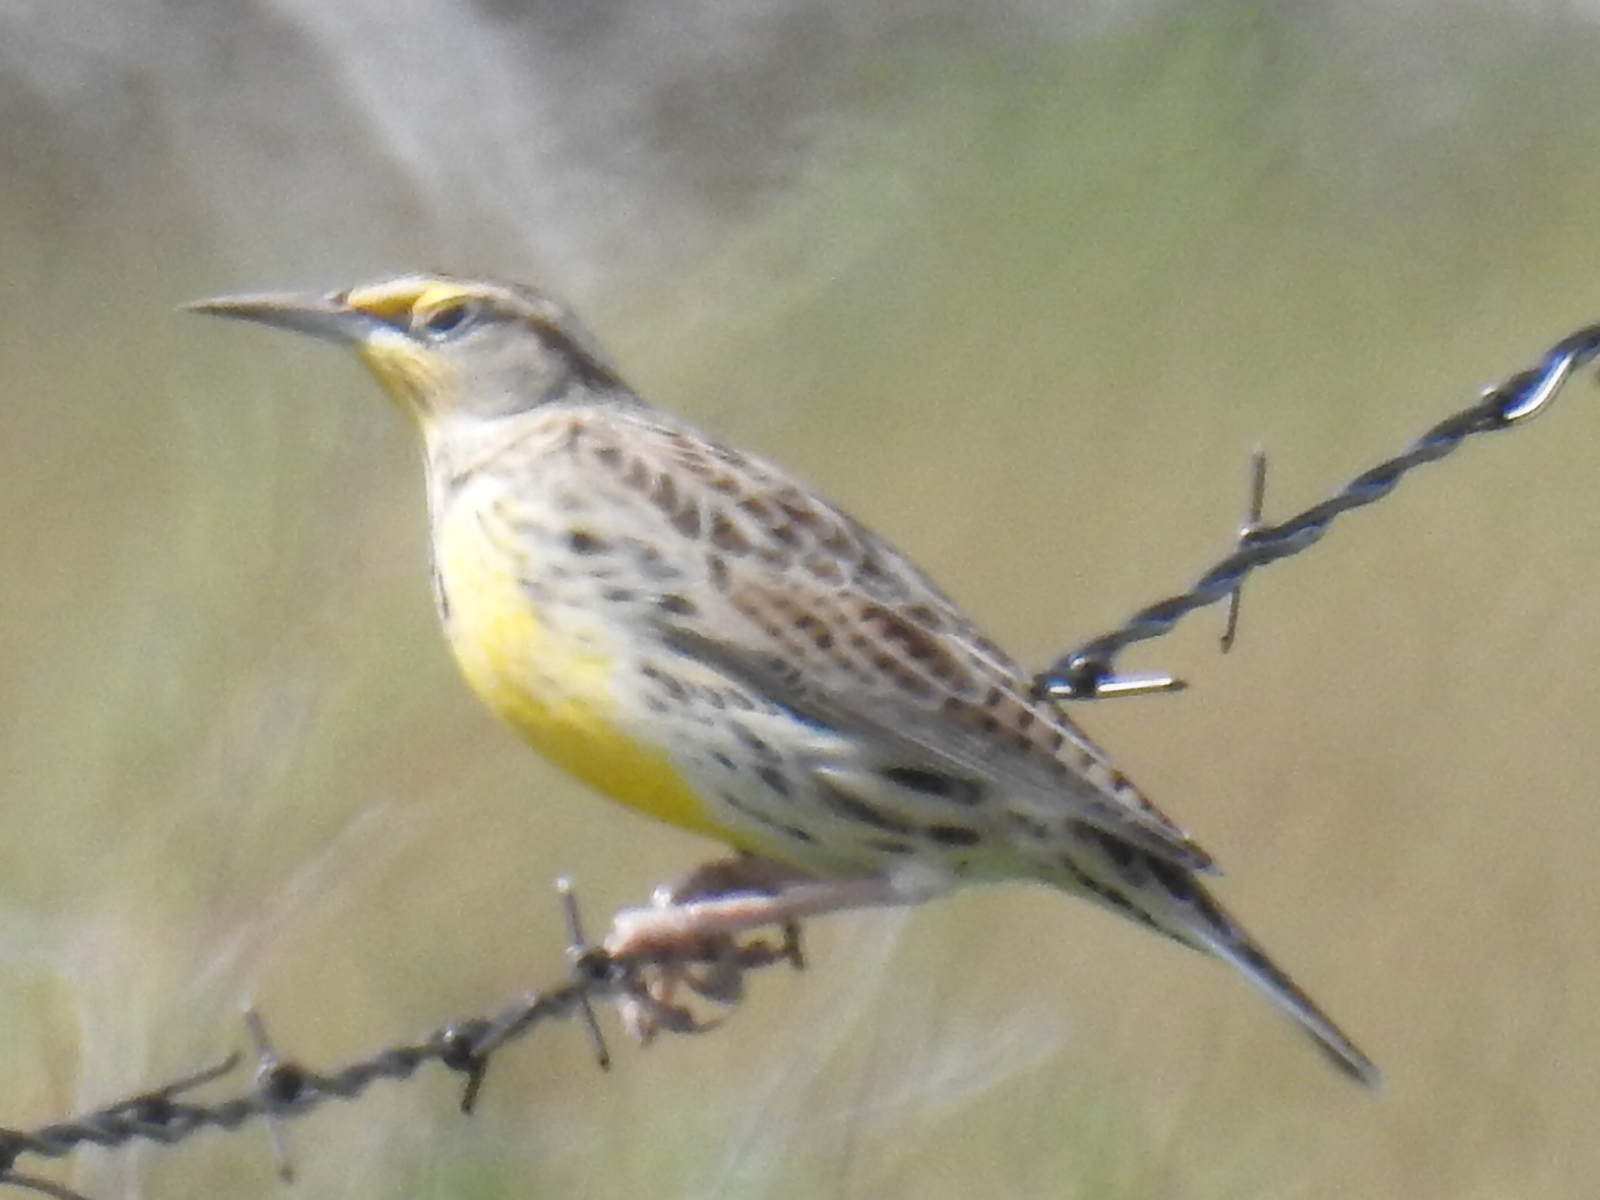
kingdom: Animalia
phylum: Chordata
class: Aves
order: Passeriformes
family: Icteridae
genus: Sturnella
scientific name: Sturnella neglecta
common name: Western meadowlark
